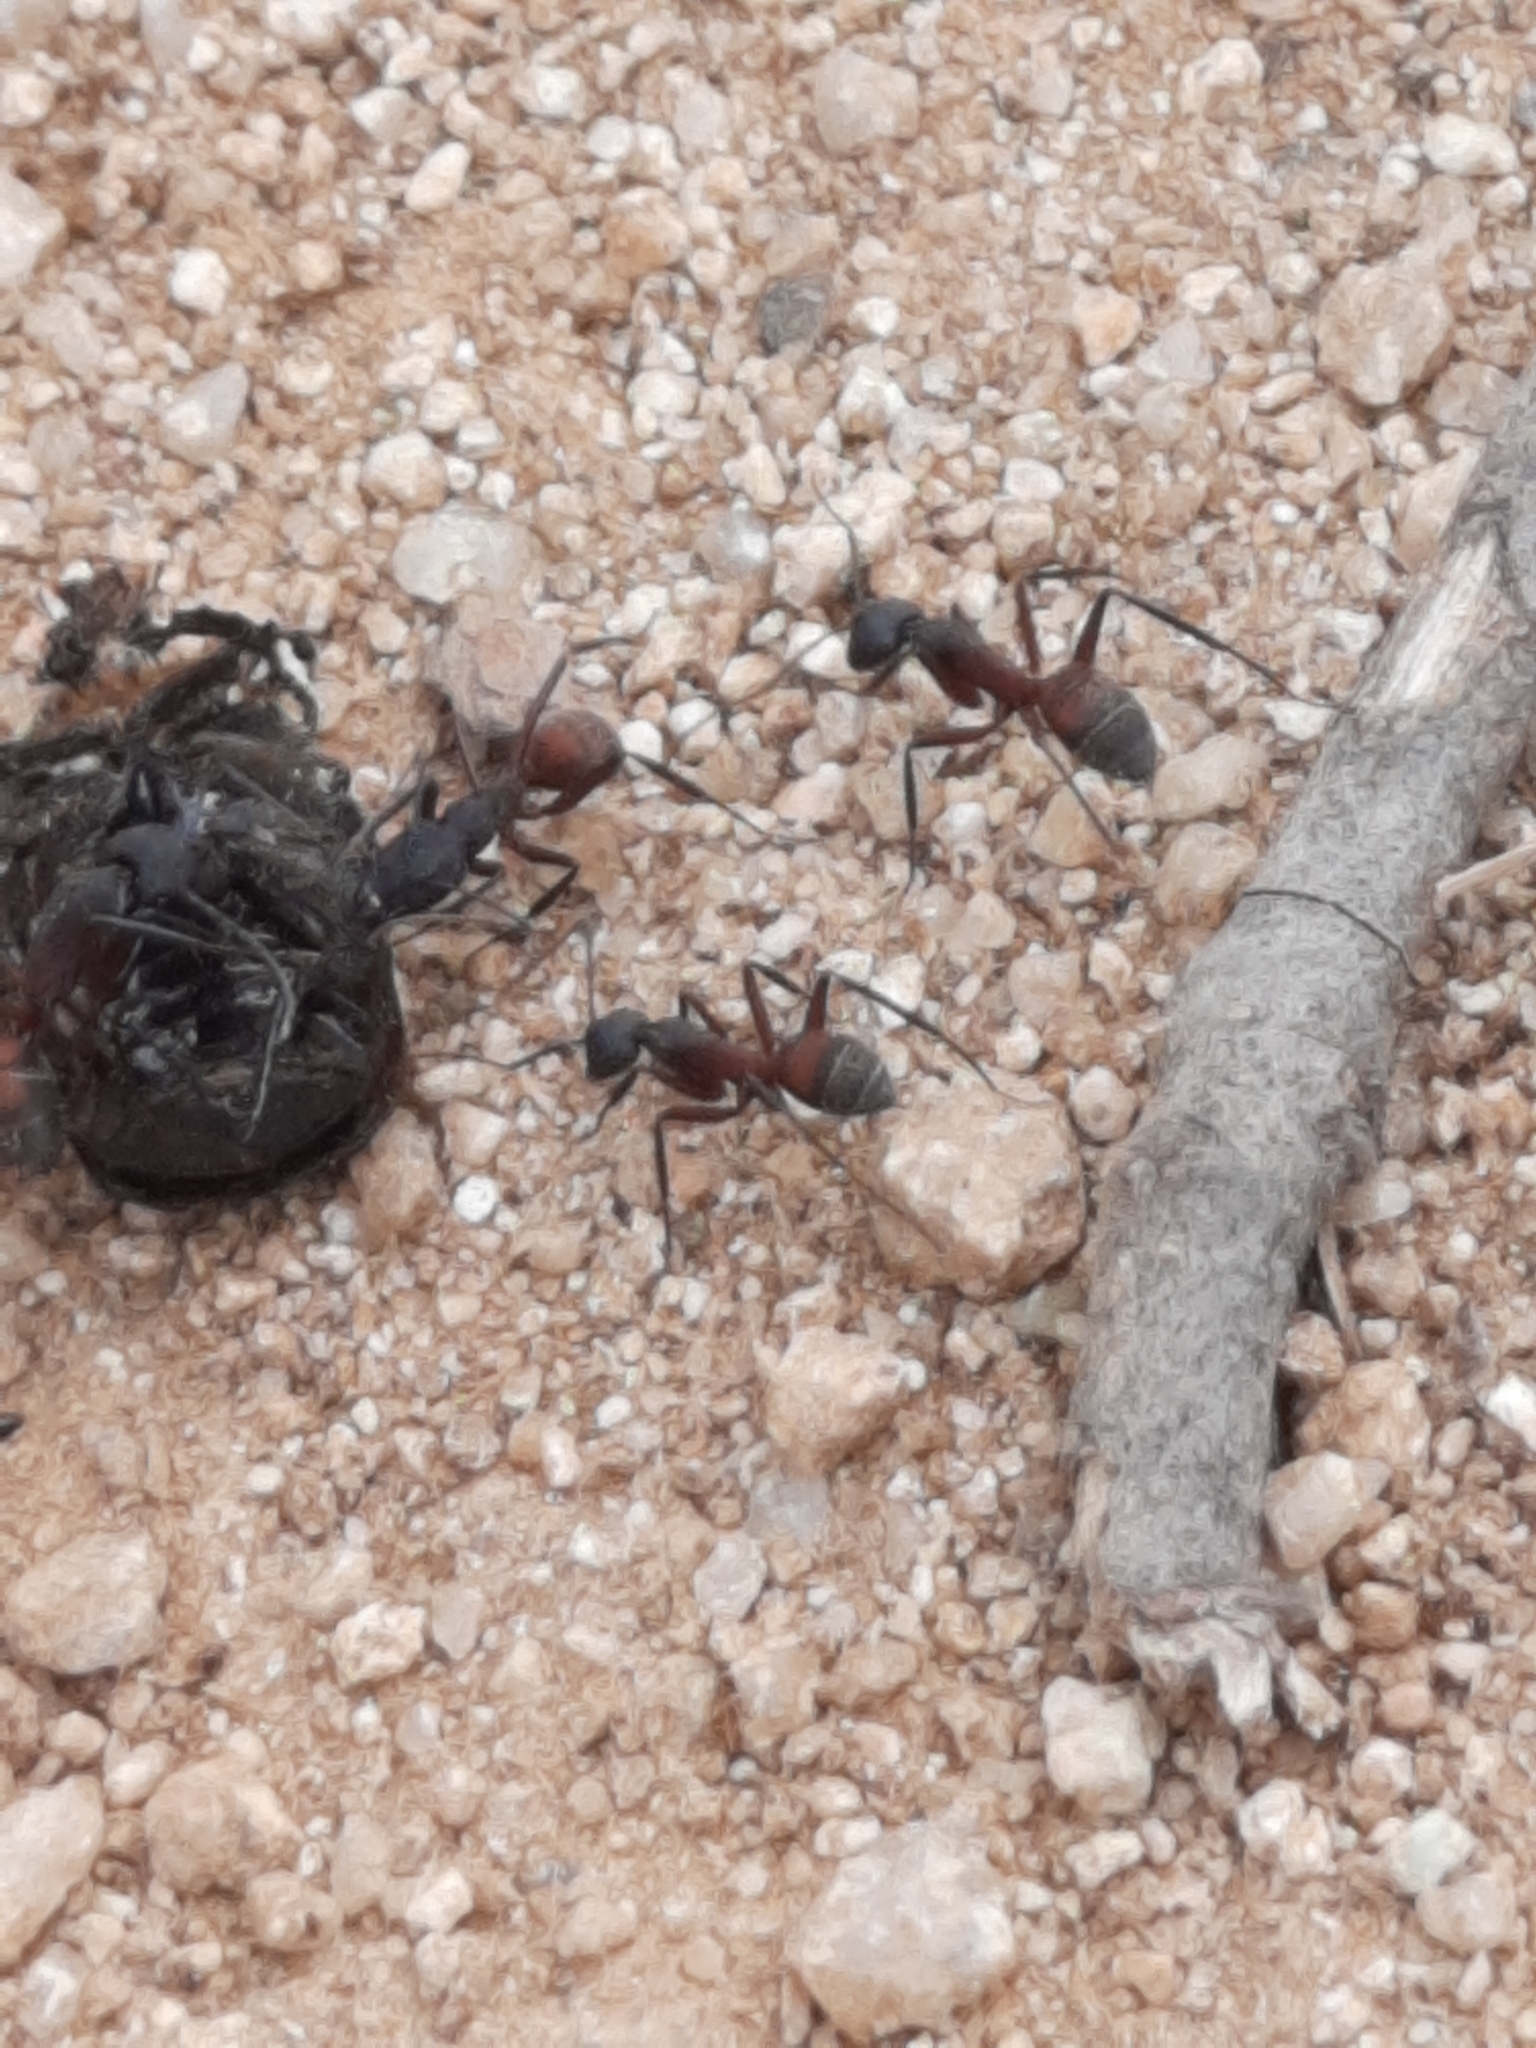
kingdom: Animalia
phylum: Arthropoda
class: Insecta
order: Hymenoptera
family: Formicidae
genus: Camponotus
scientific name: Camponotus cruentatus
